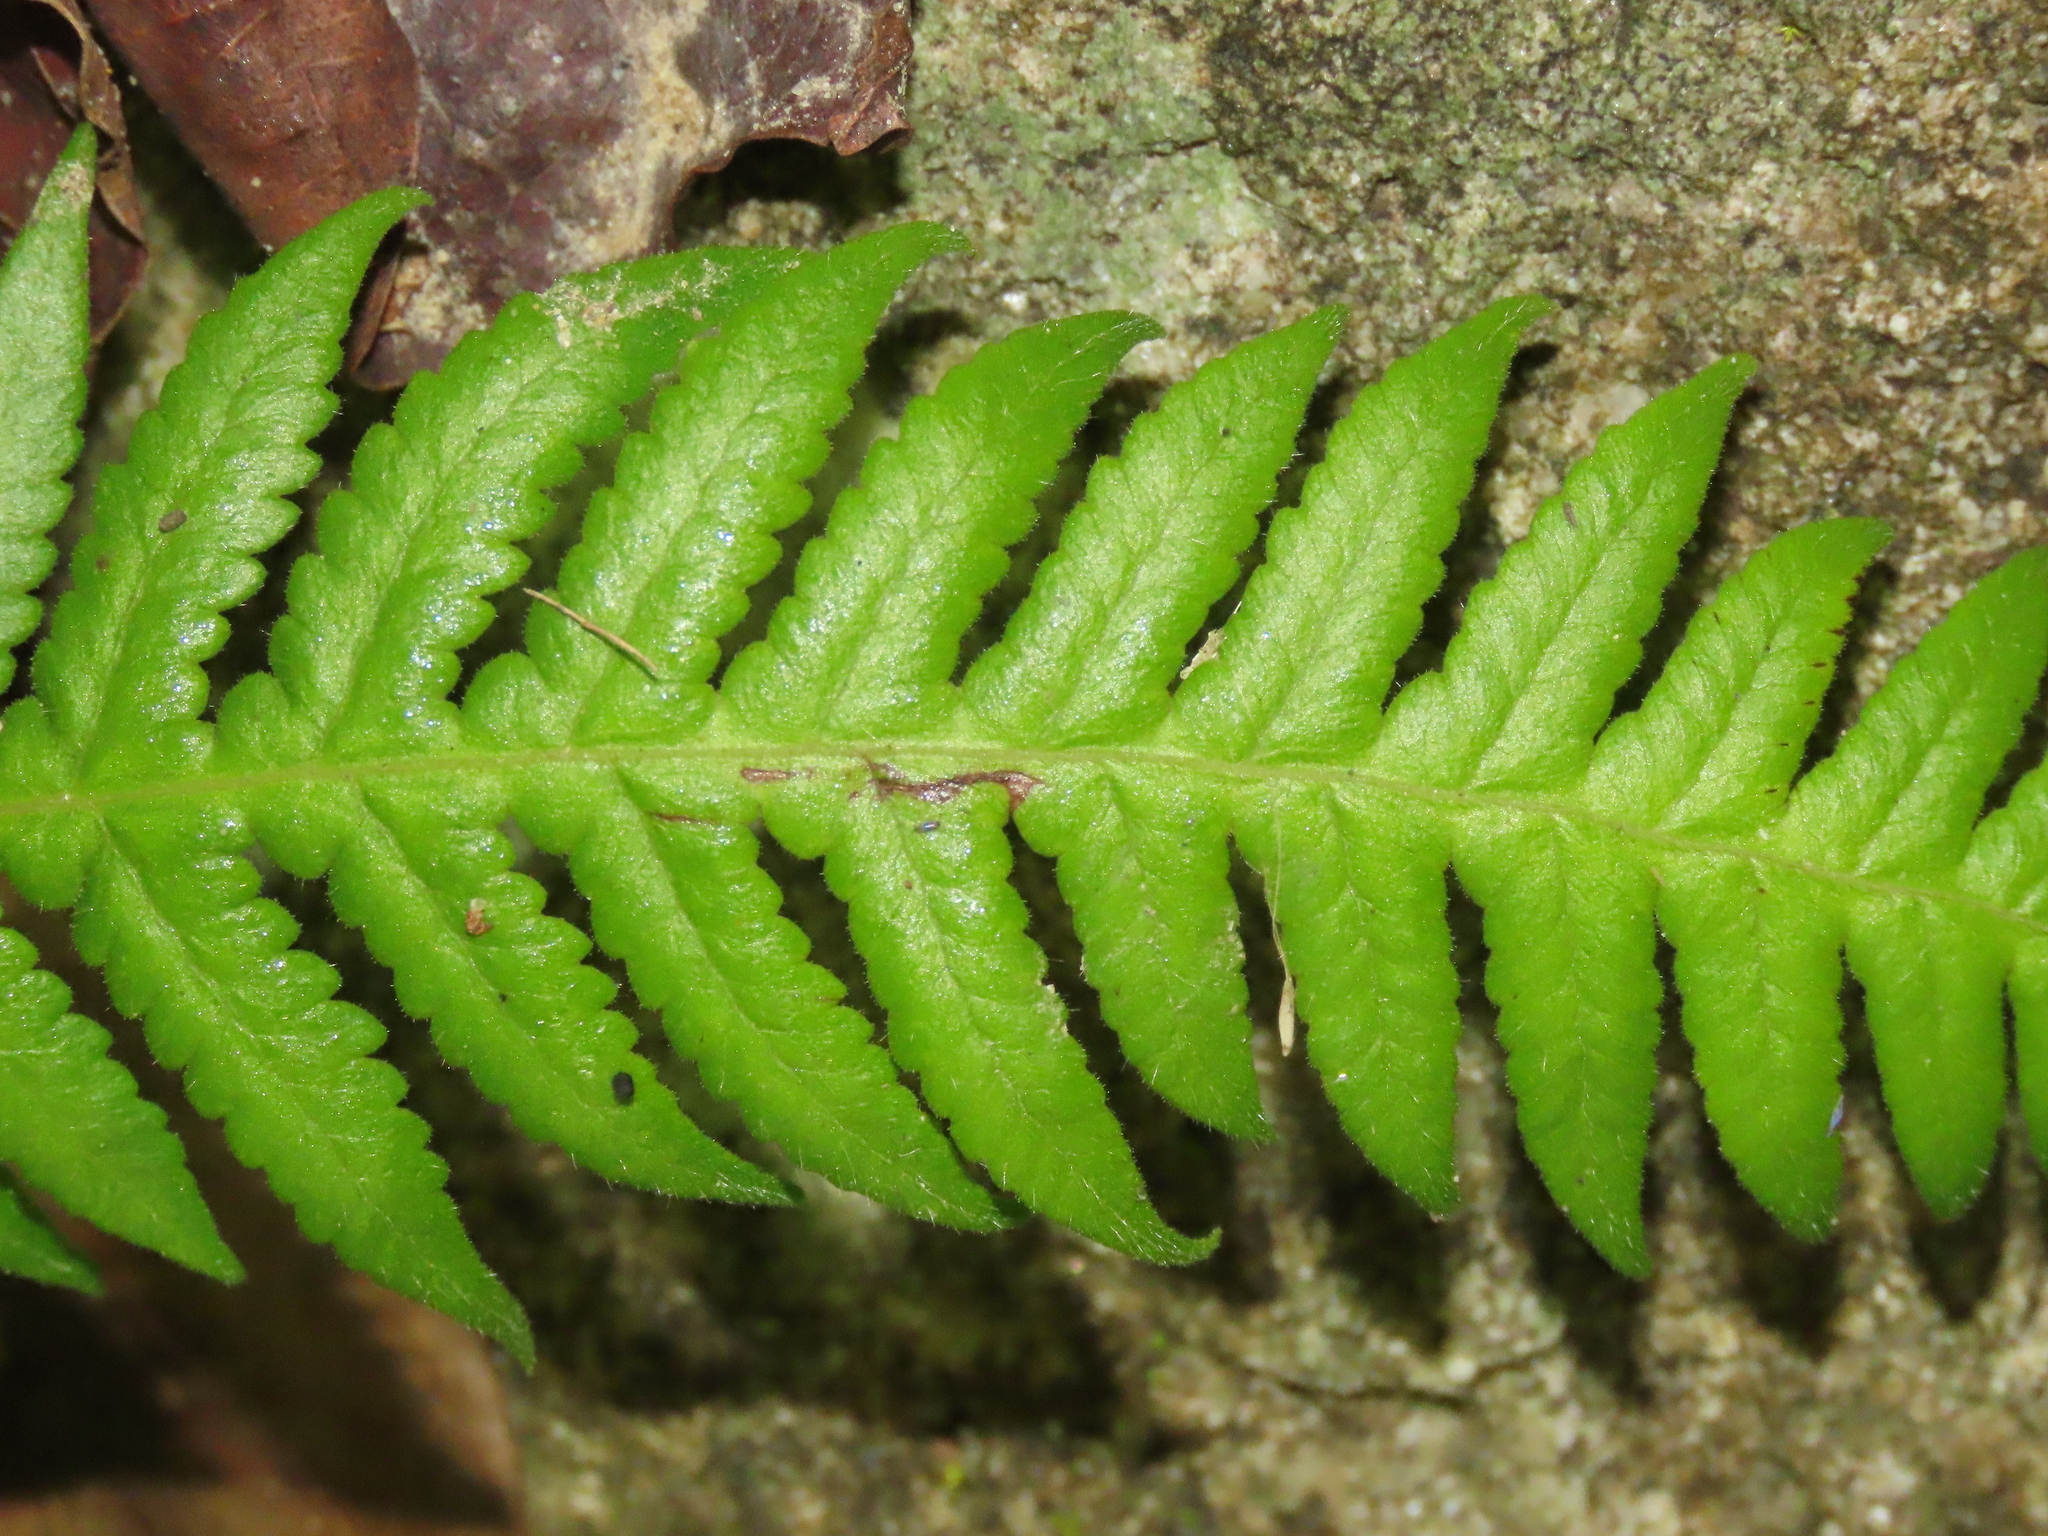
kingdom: Plantae
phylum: Tracheophyta
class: Polypodiopsida
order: Polypodiales
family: Thelypteridaceae
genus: Phegopteris
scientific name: Phegopteris decursive-pinnata
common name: Japanese beech fern
